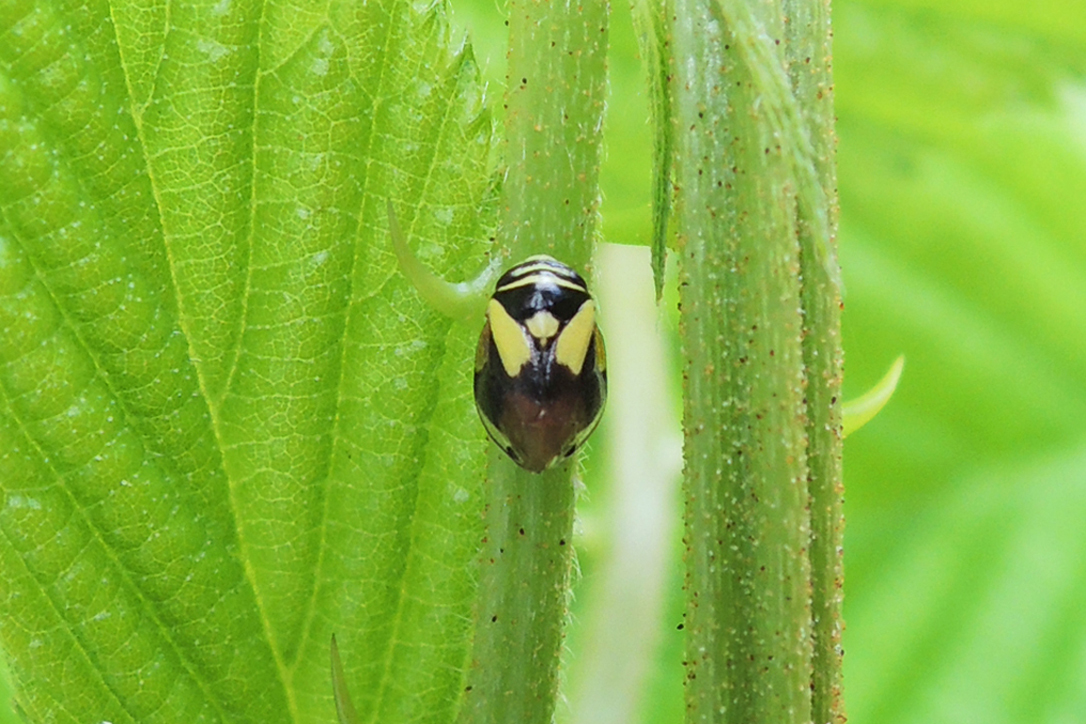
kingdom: Animalia
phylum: Arthropoda
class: Insecta
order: Hemiptera
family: Clastopteridae
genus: Clastoptera
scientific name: Clastoptera proteus
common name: Dogwood spittlebug
